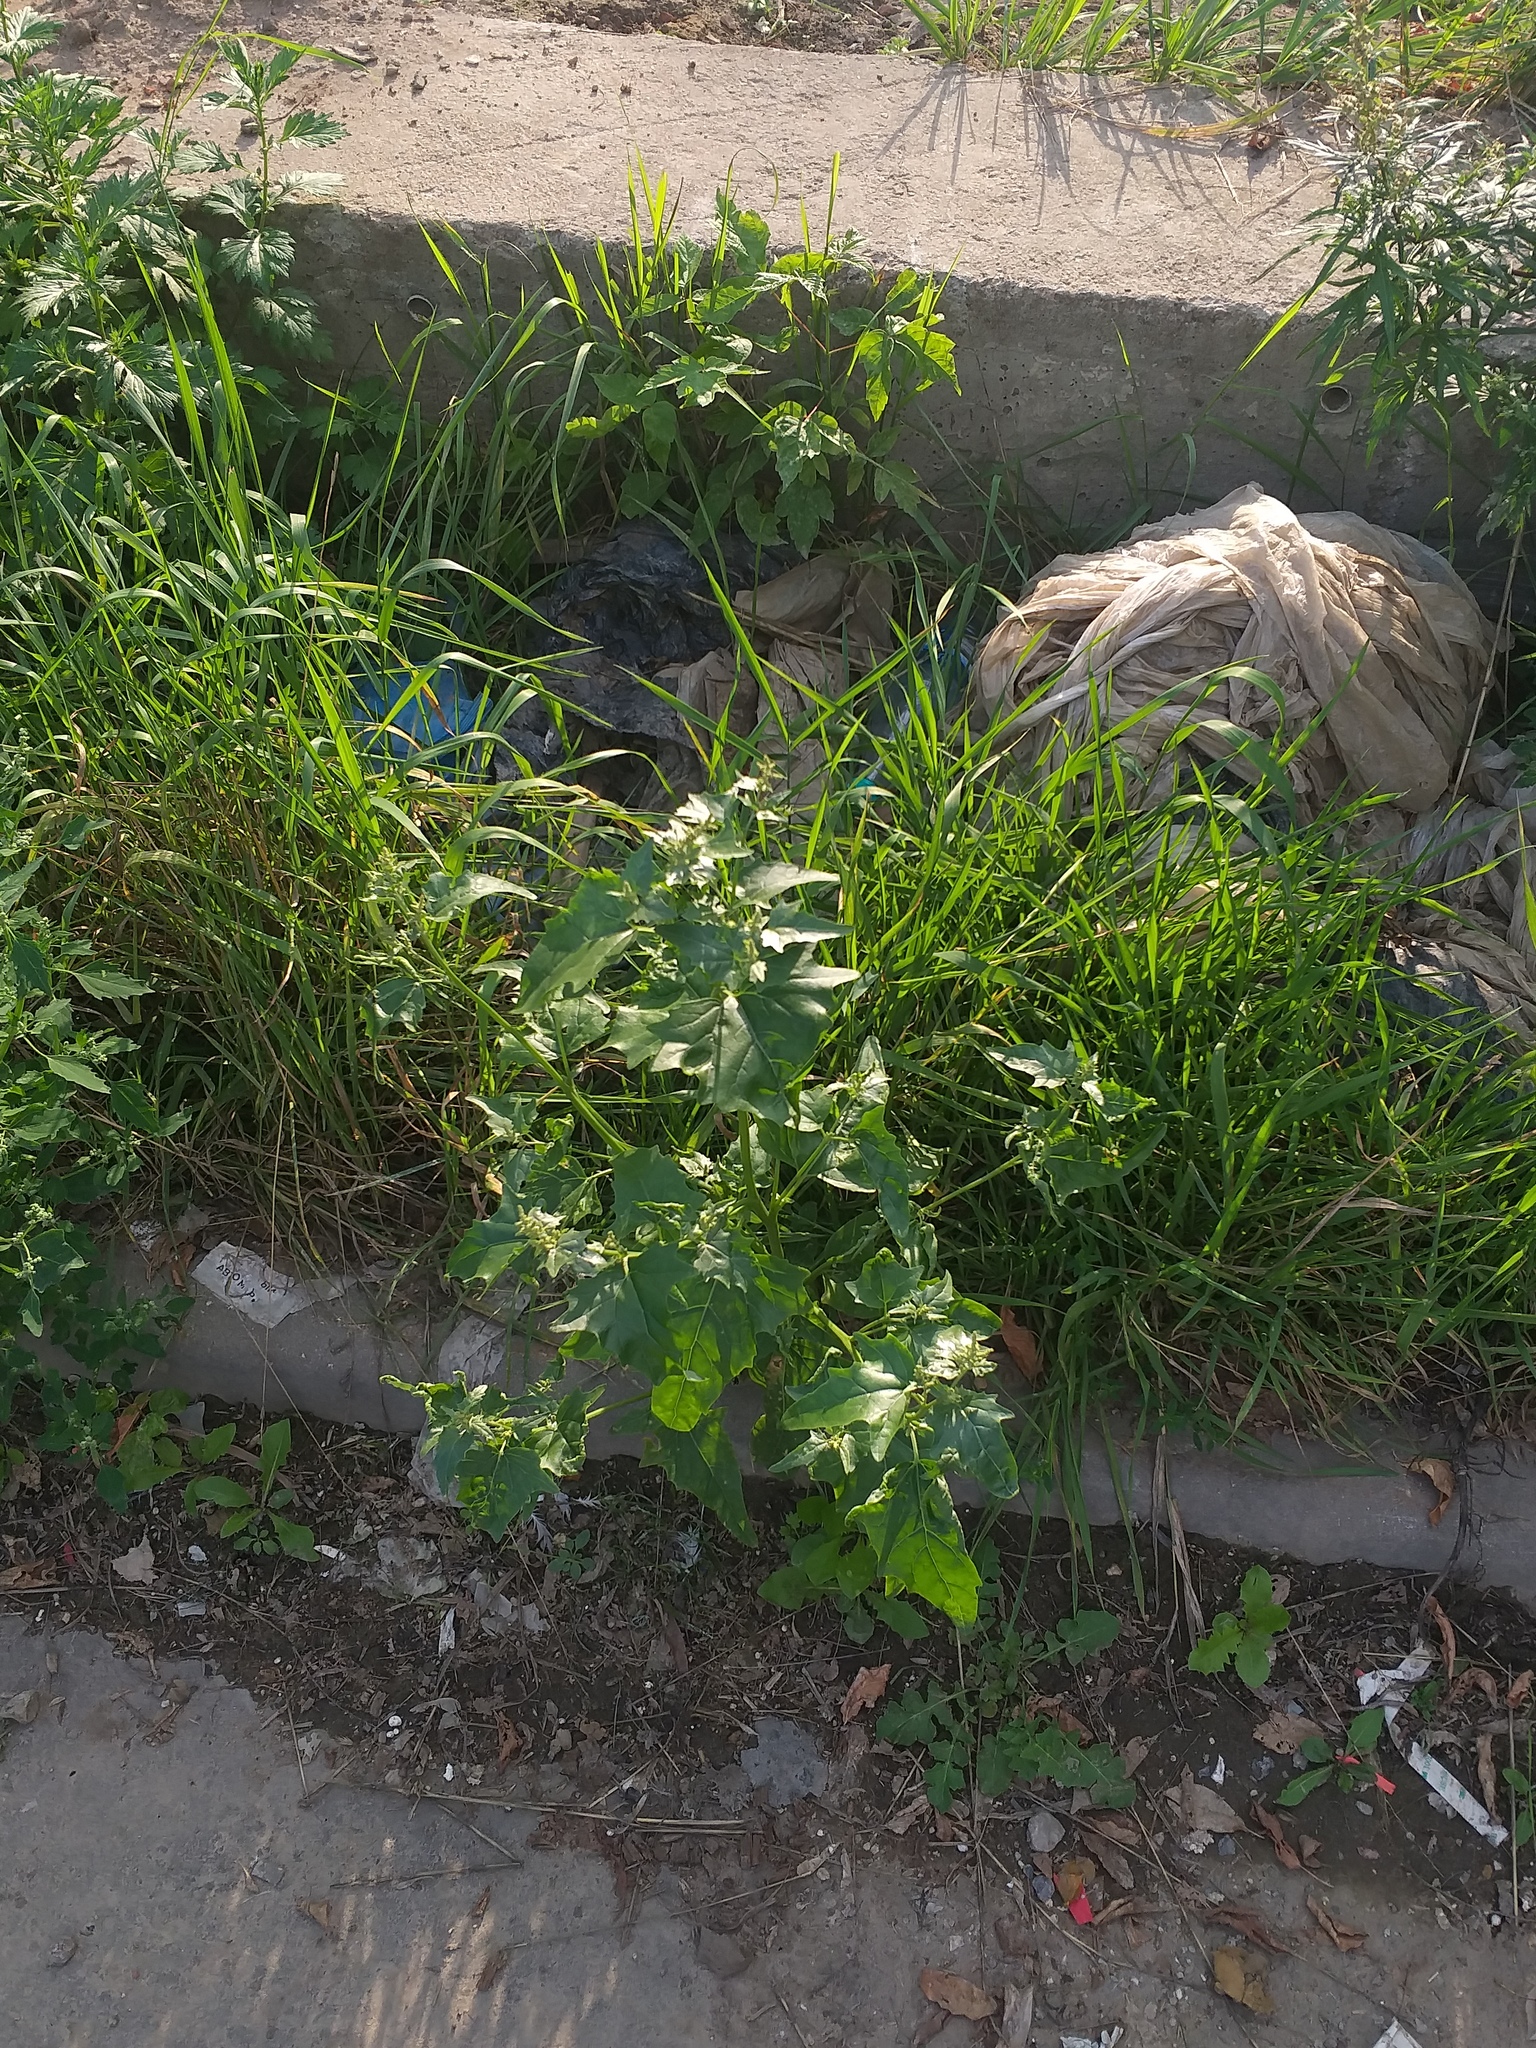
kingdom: Plantae
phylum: Tracheophyta
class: Magnoliopsida
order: Caryophyllales
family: Amaranthaceae
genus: Atriplex
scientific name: Atriplex sagittata
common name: Purple orache
